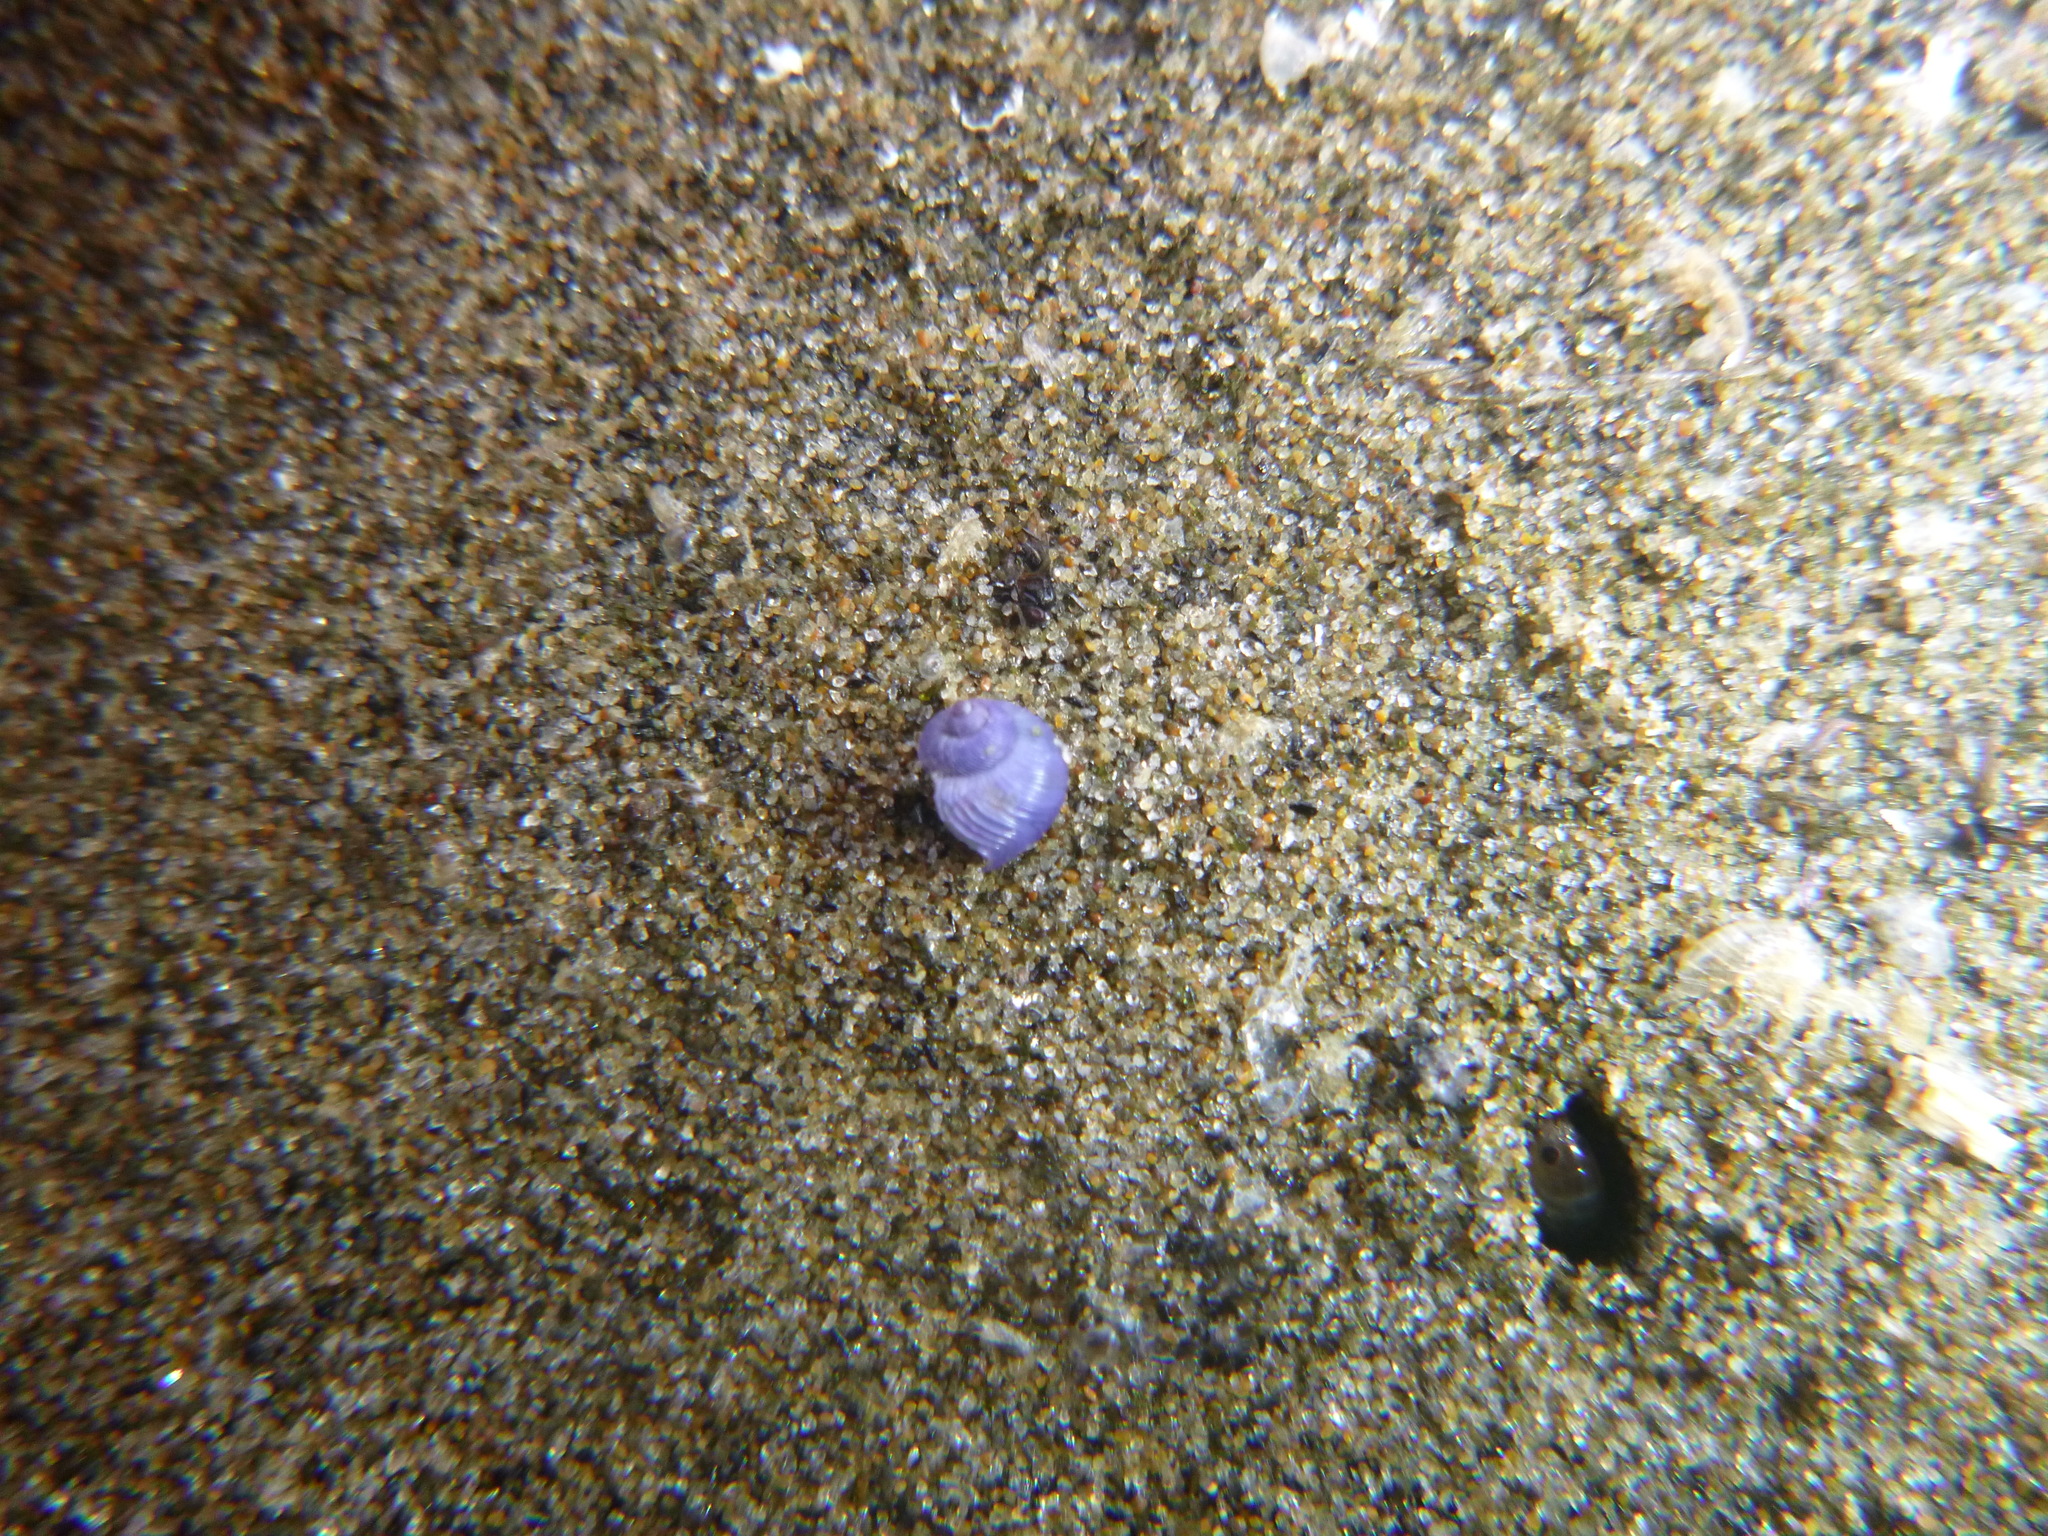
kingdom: Animalia
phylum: Mollusca
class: Gastropoda
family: Epitoniidae
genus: Janthina
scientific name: Janthina exigua
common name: Dwarf janthina
